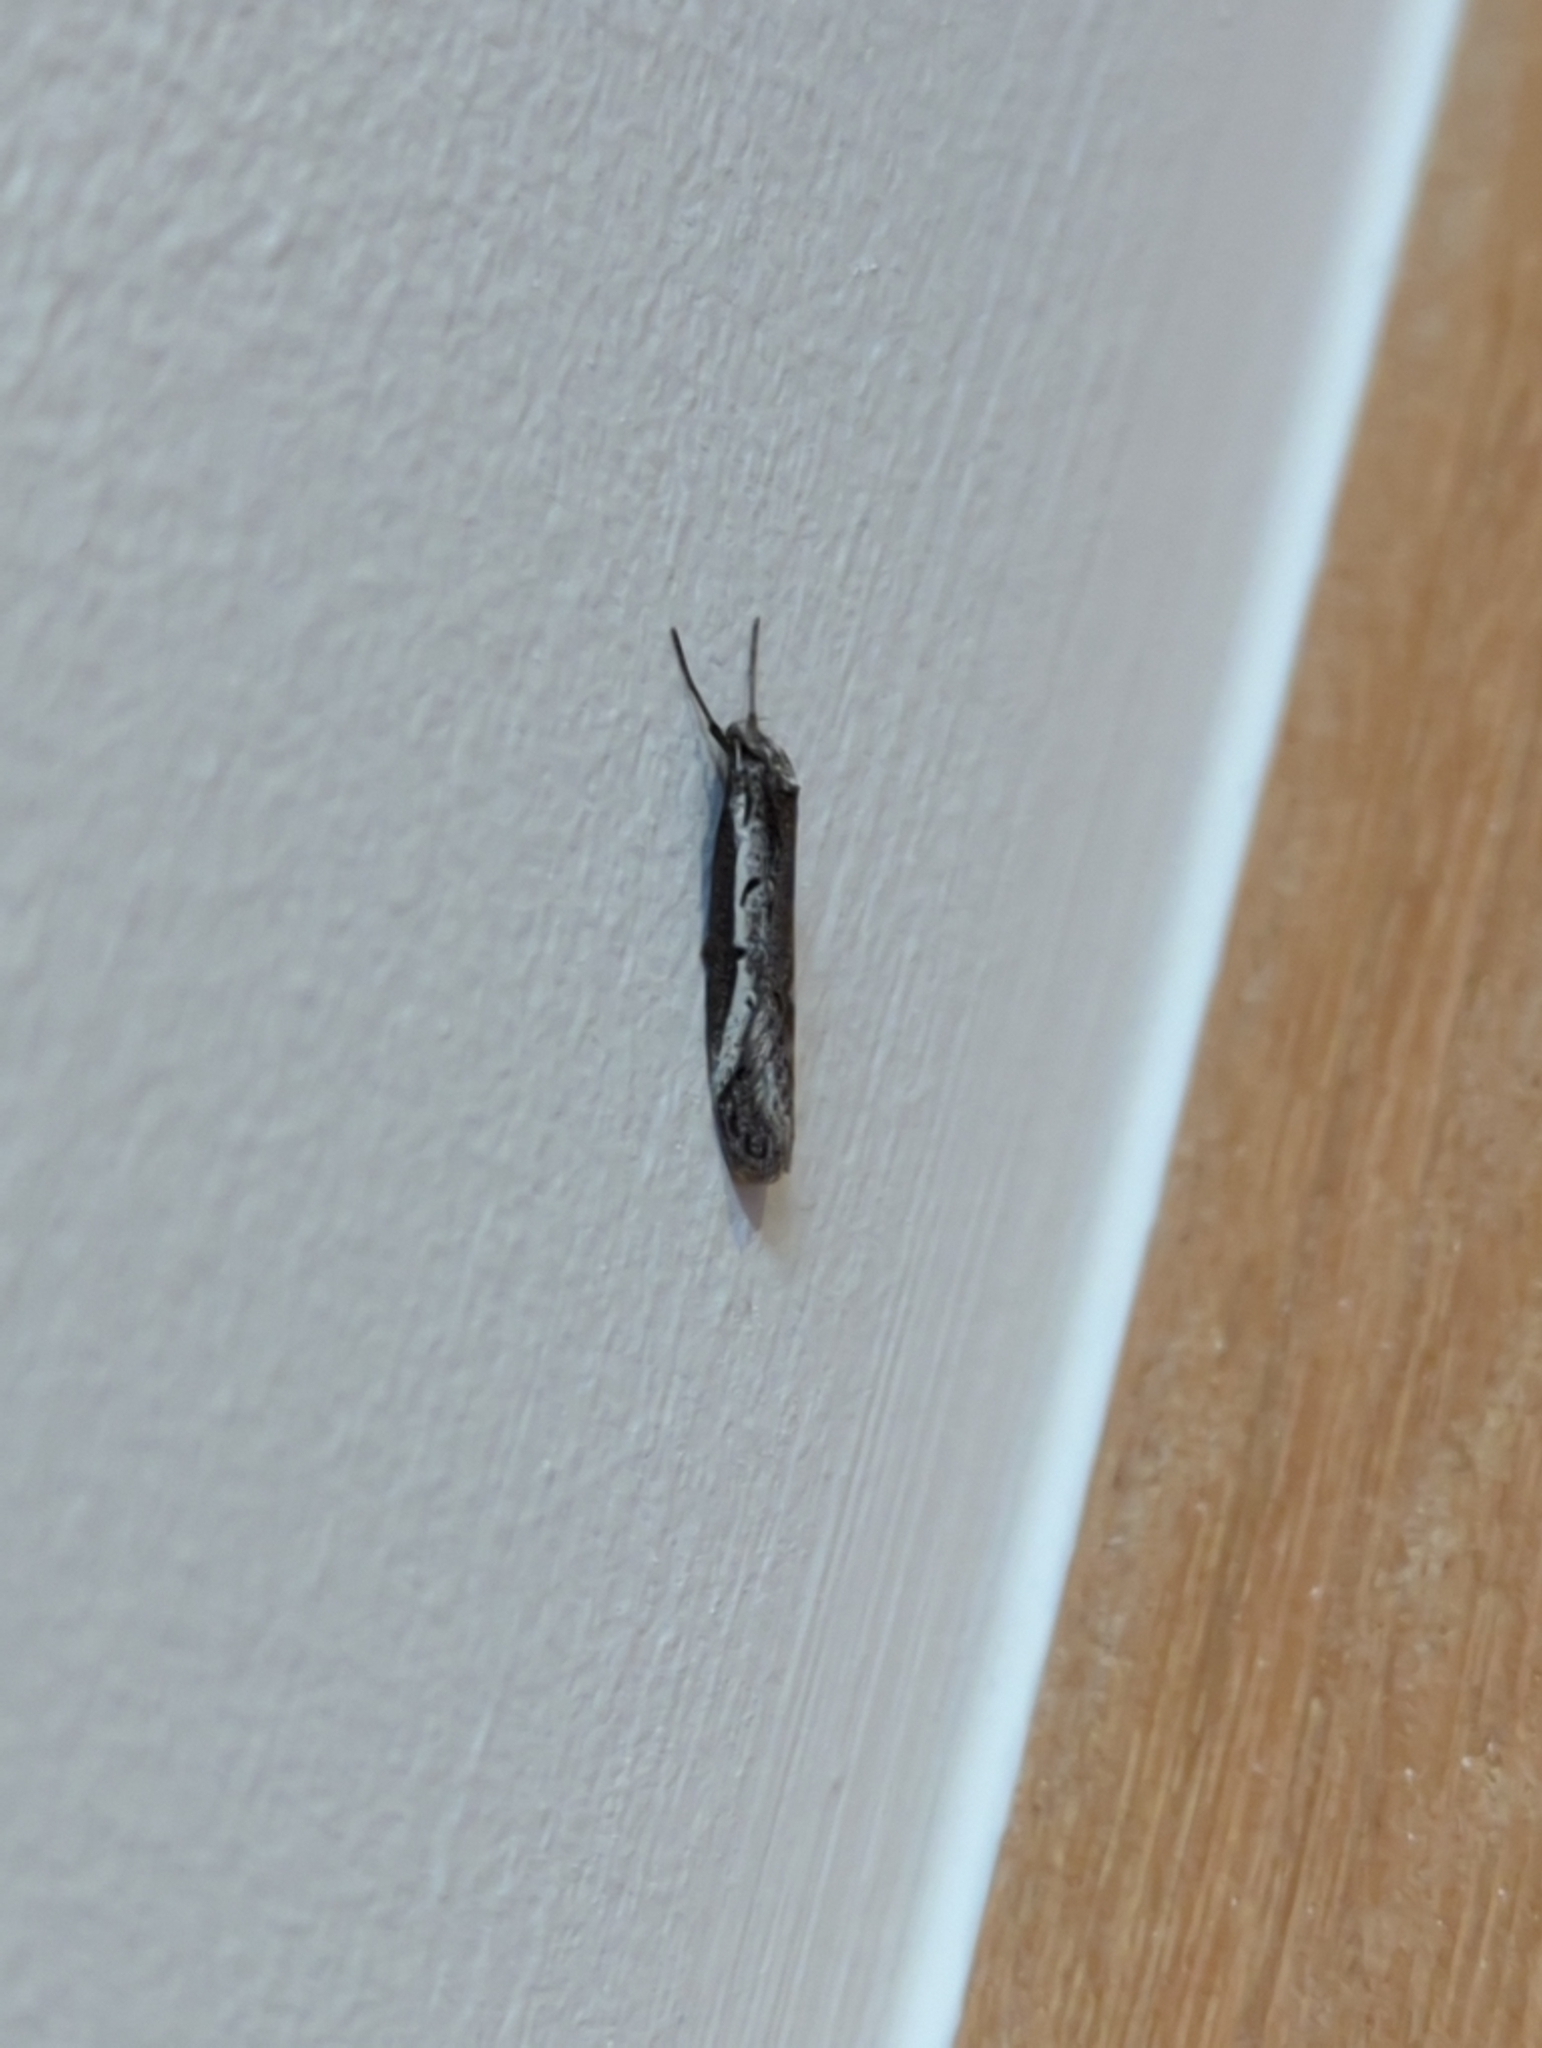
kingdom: Animalia
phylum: Arthropoda
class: Insecta
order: Lepidoptera
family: Oecophoridae
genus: Philobota
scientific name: Philobota stella
